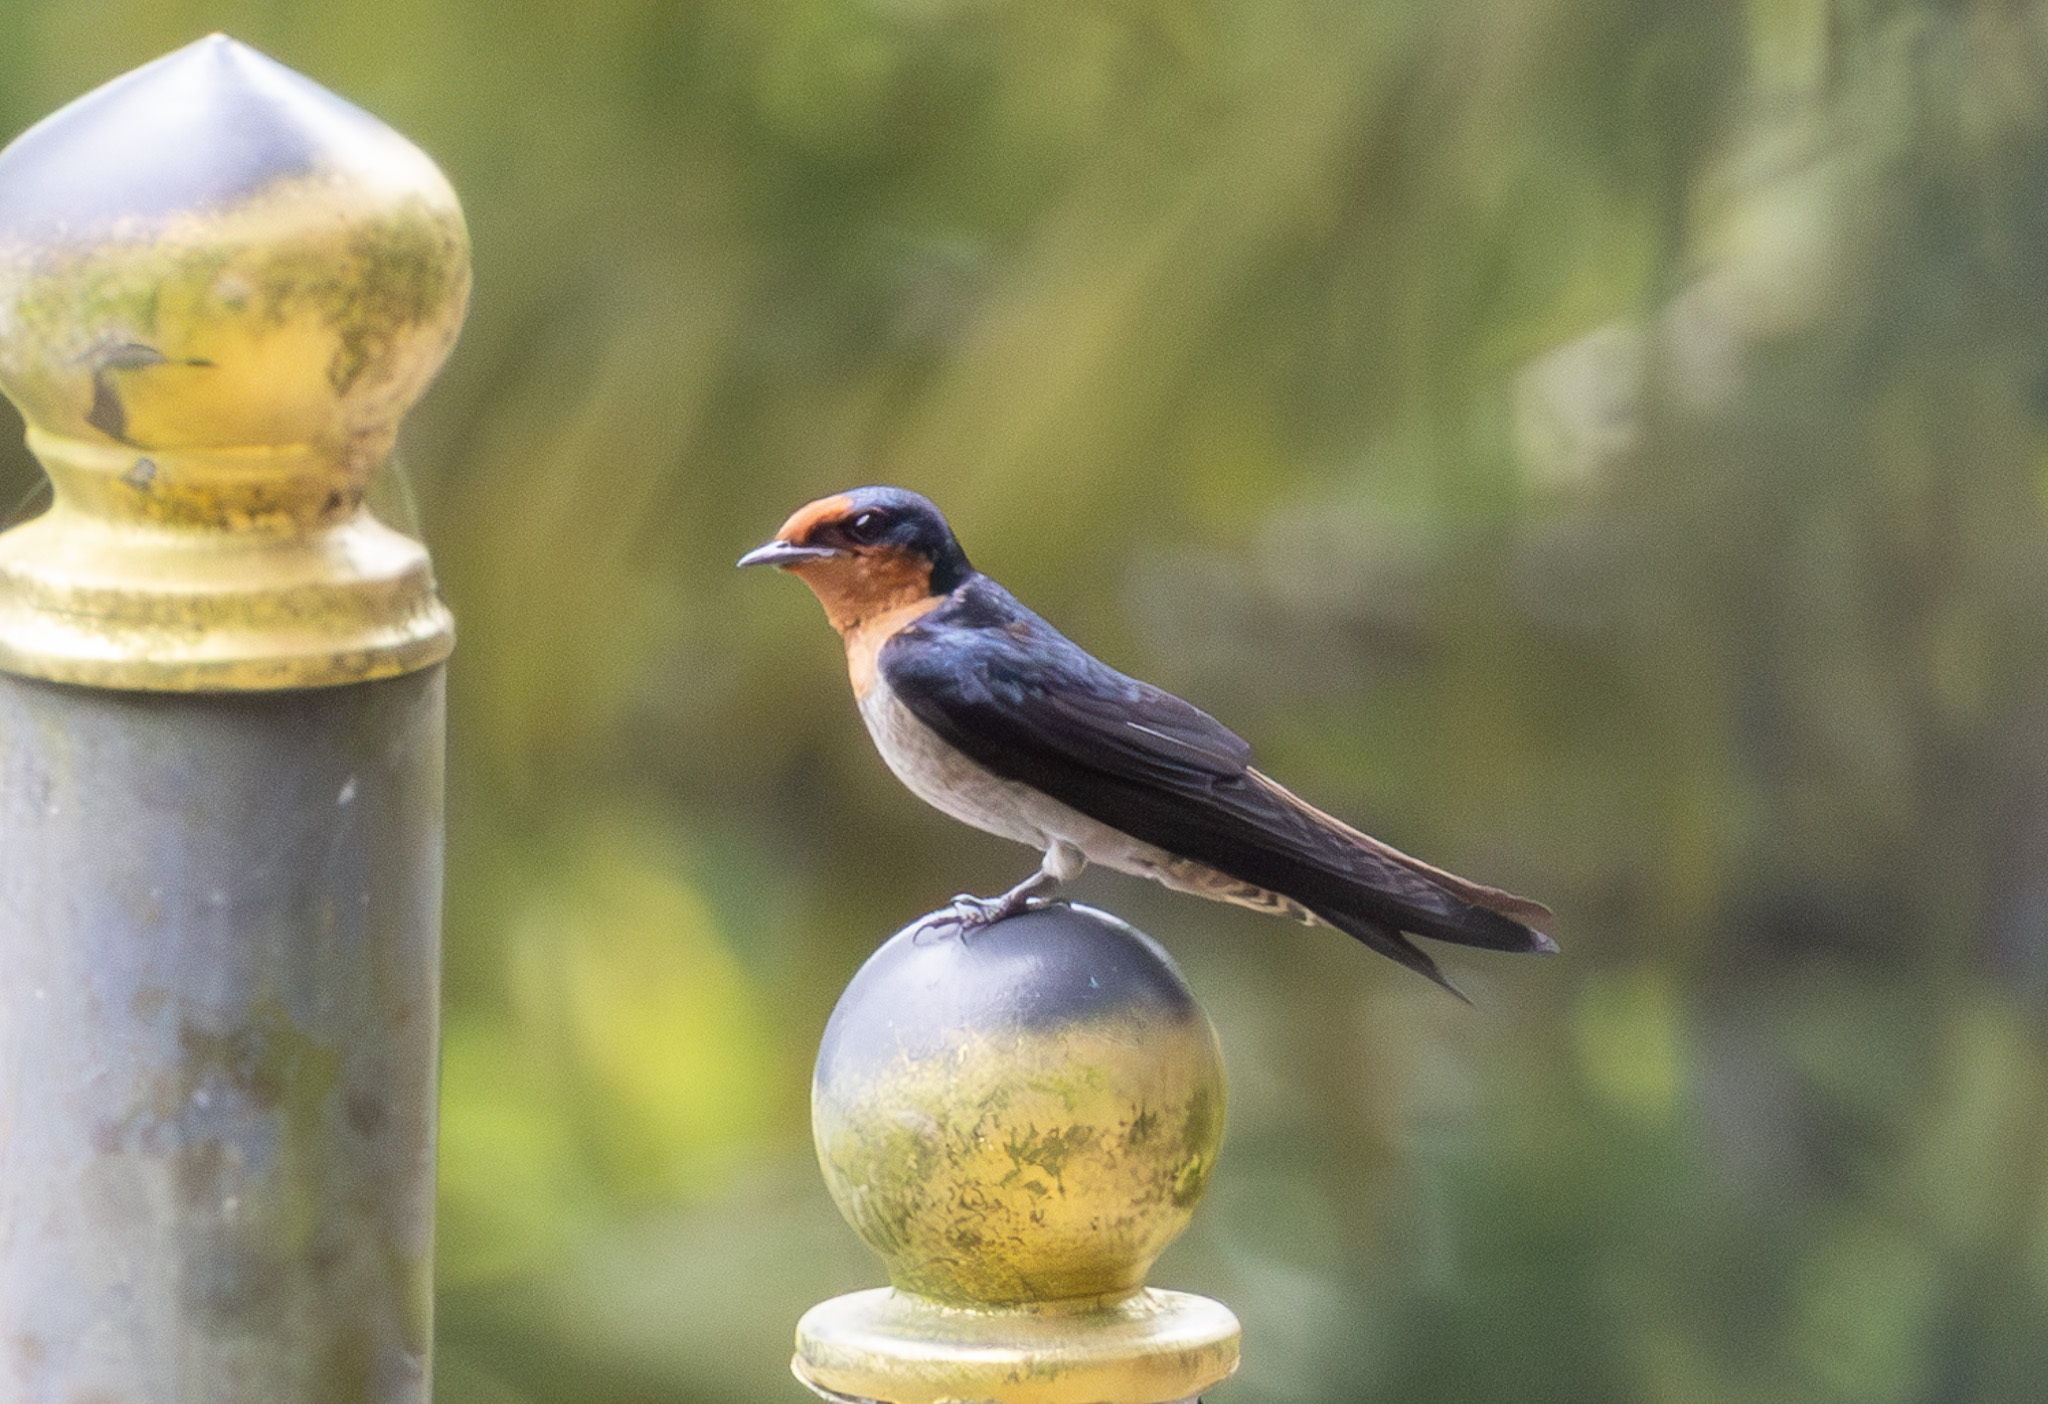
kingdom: Animalia
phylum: Chordata
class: Aves
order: Passeriformes
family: Hirundinidae
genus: Hirundo
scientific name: Hirundo tahitica
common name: Pacific swallow
